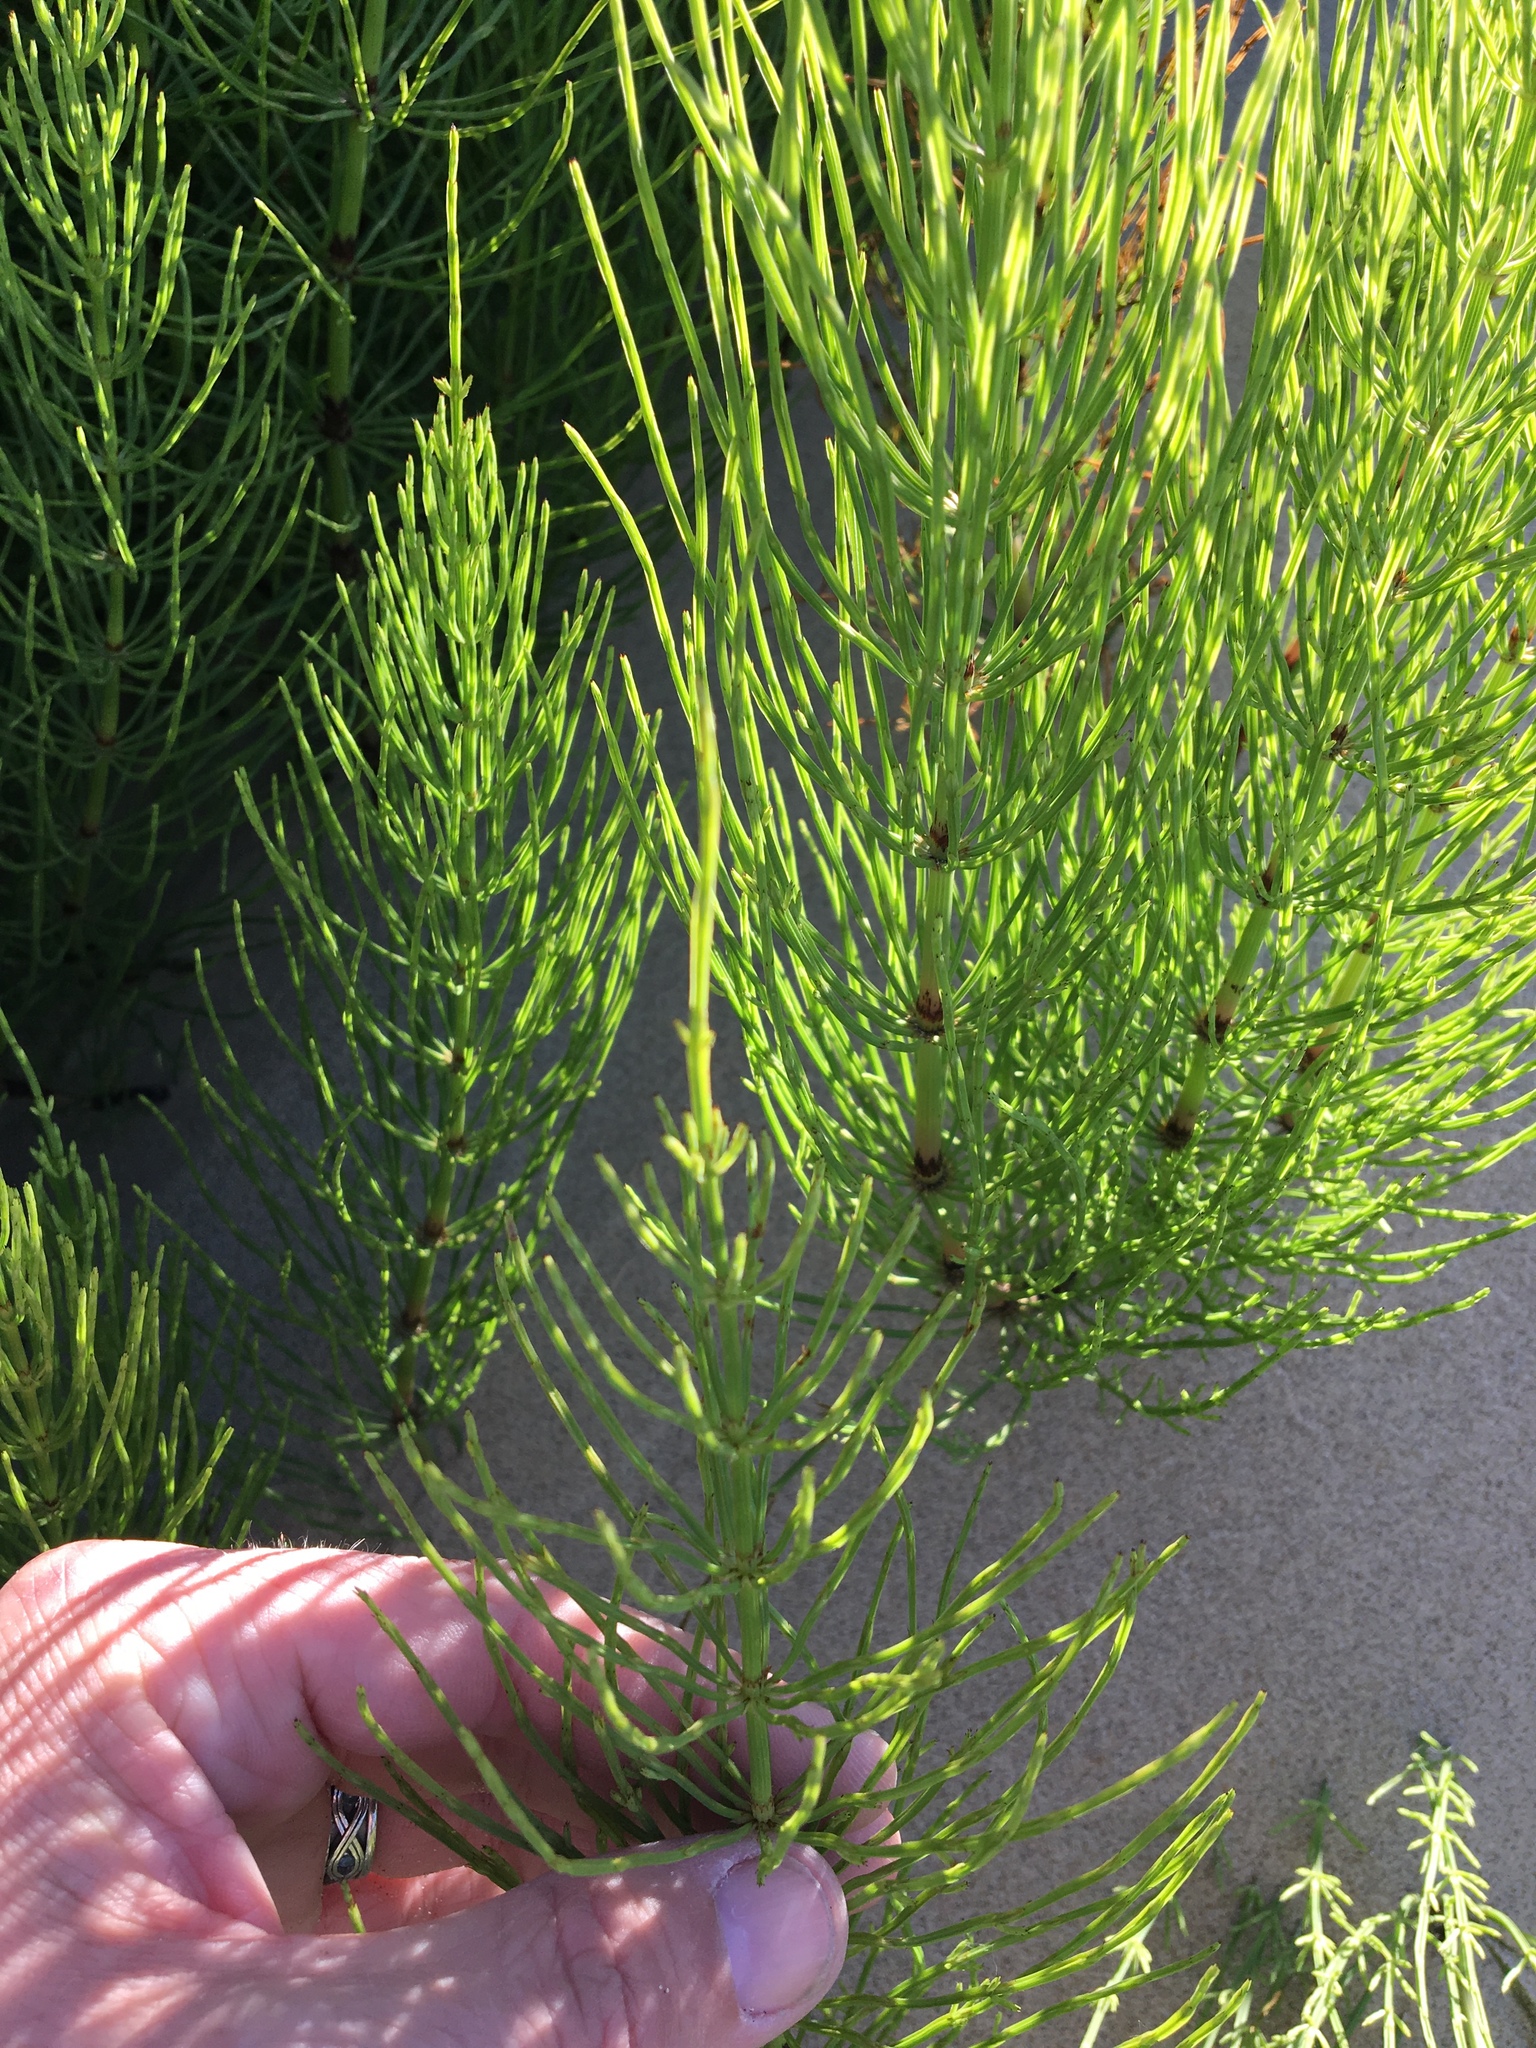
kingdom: Plantae
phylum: Tracheophyta
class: Polypodiopsida
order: Equisetales
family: Equisetaceae
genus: Equisetum
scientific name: Equisetum arvense
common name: Field horsetail
